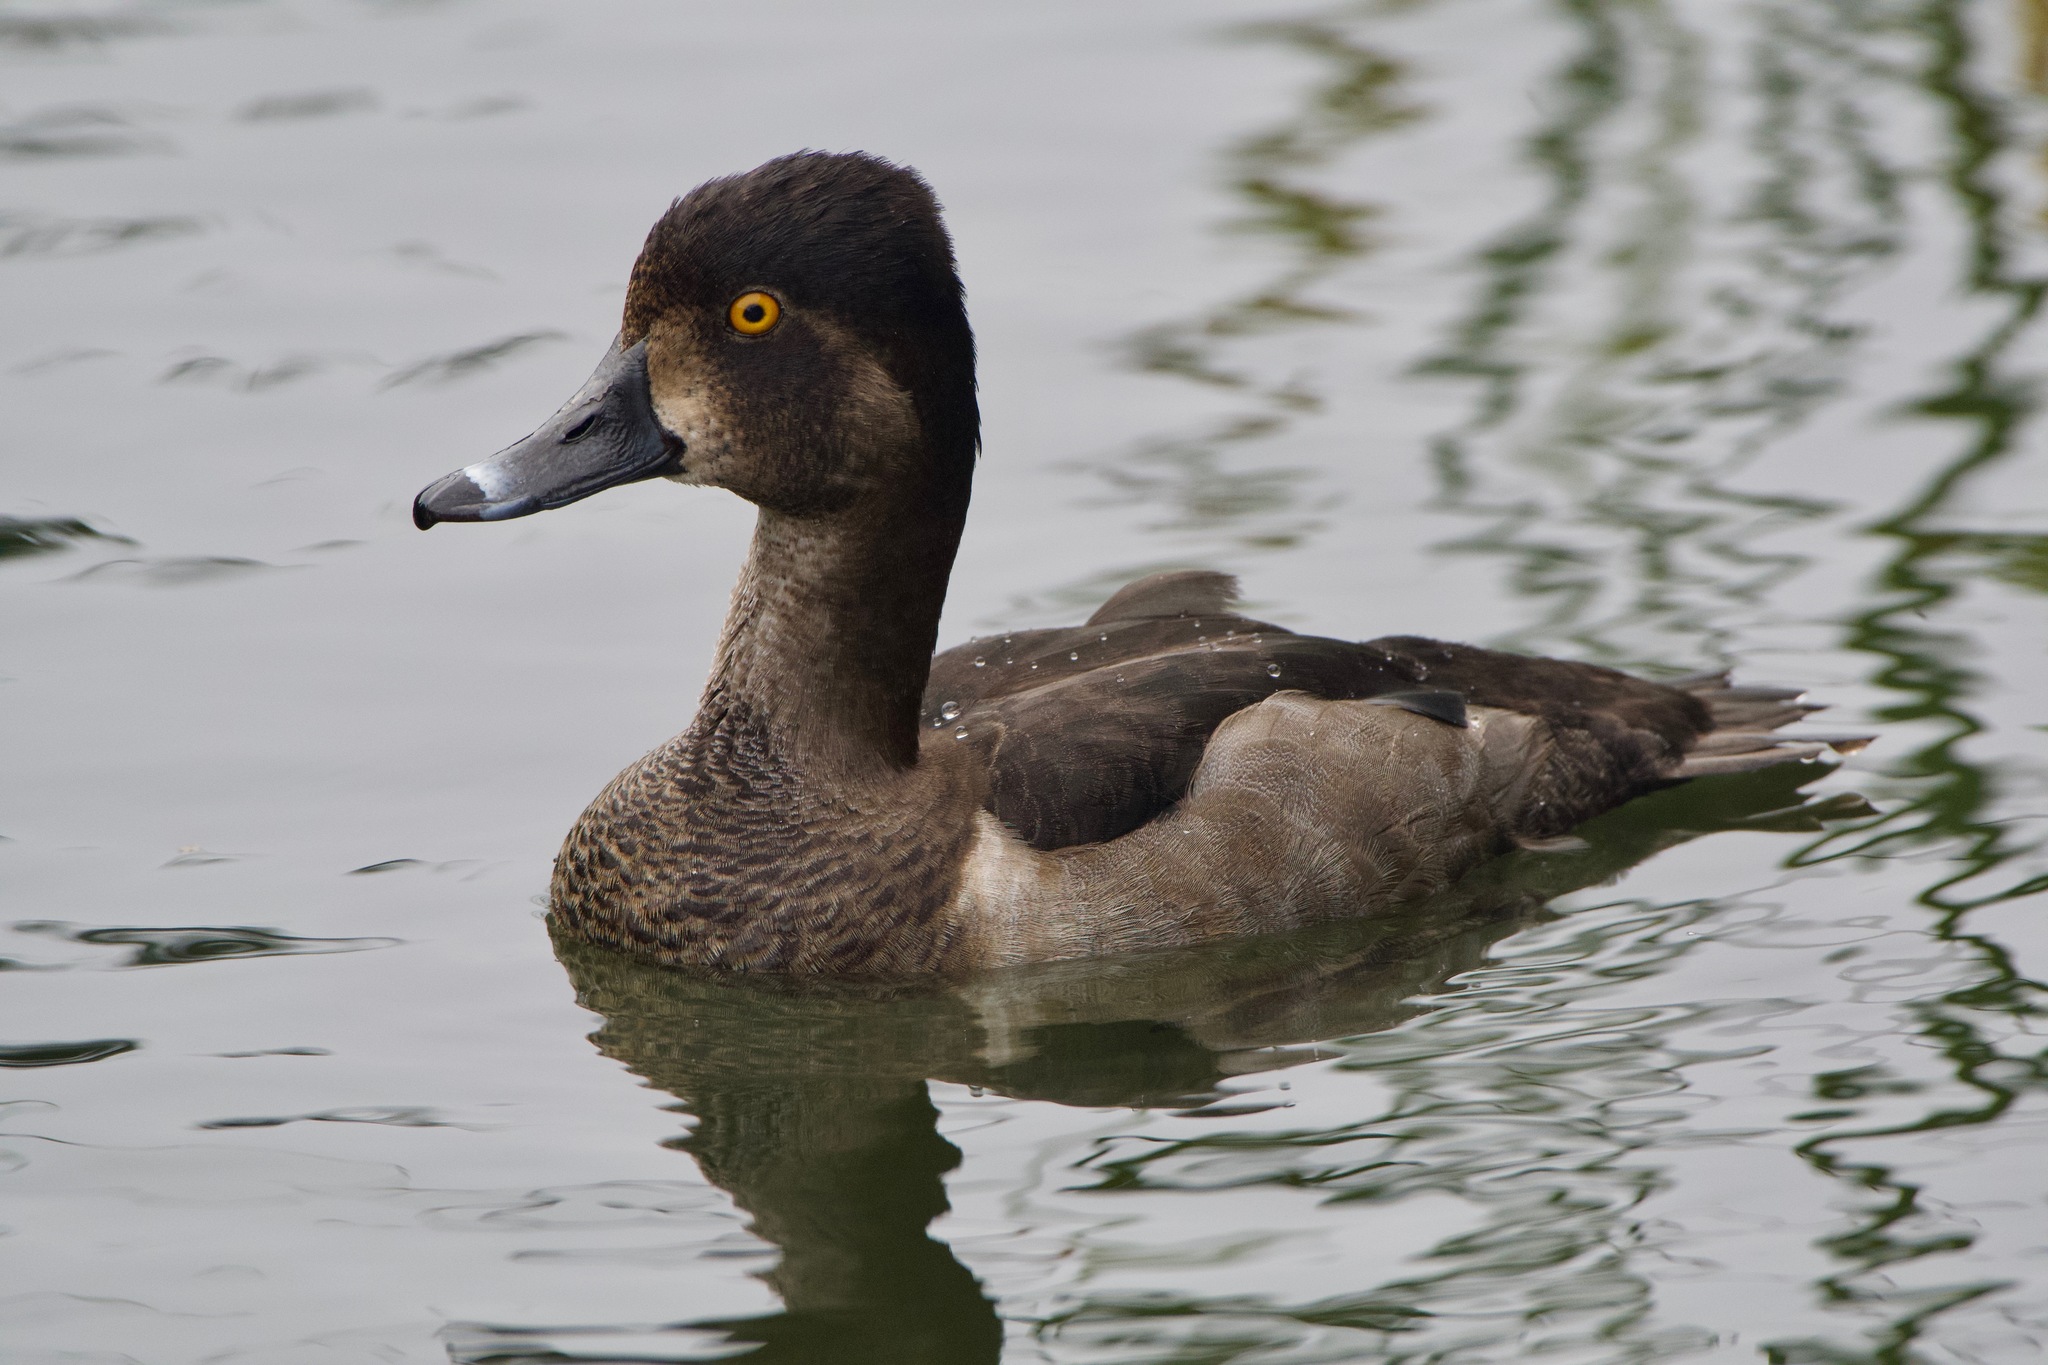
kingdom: Animalia
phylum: Chordata
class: Aves
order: Anseriformes
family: Anatidae
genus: Aythya
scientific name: Aythya collaris
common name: Ring-necked duck
